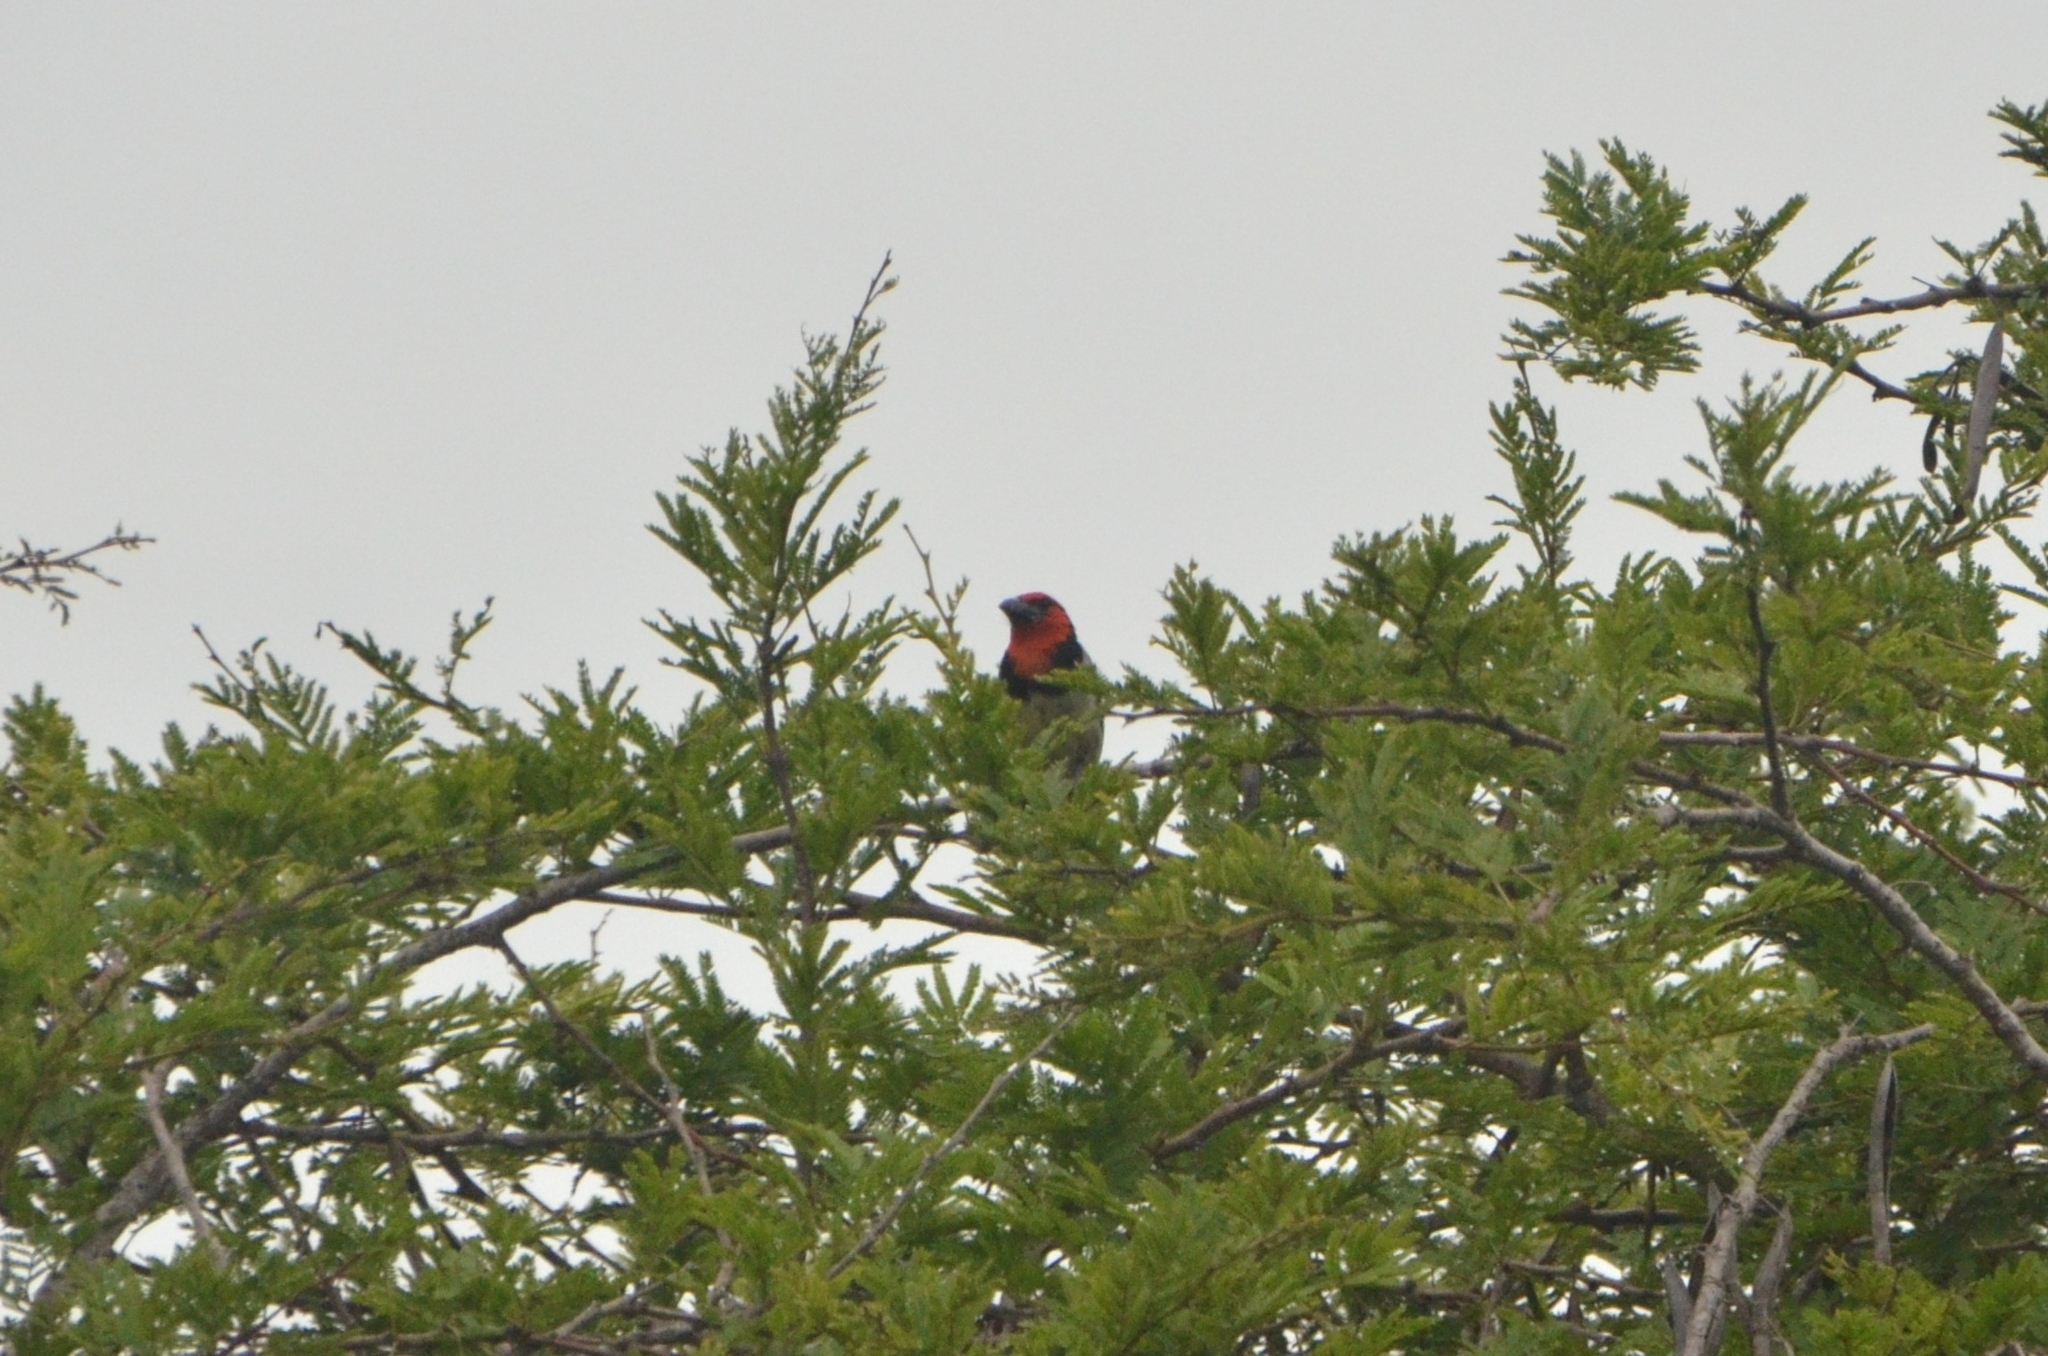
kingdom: Animalia
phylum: Chordata
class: Aves
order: Piciformes
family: Lybiidae
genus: Lybius
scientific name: Lybius torquatus
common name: Black-collared barbet
